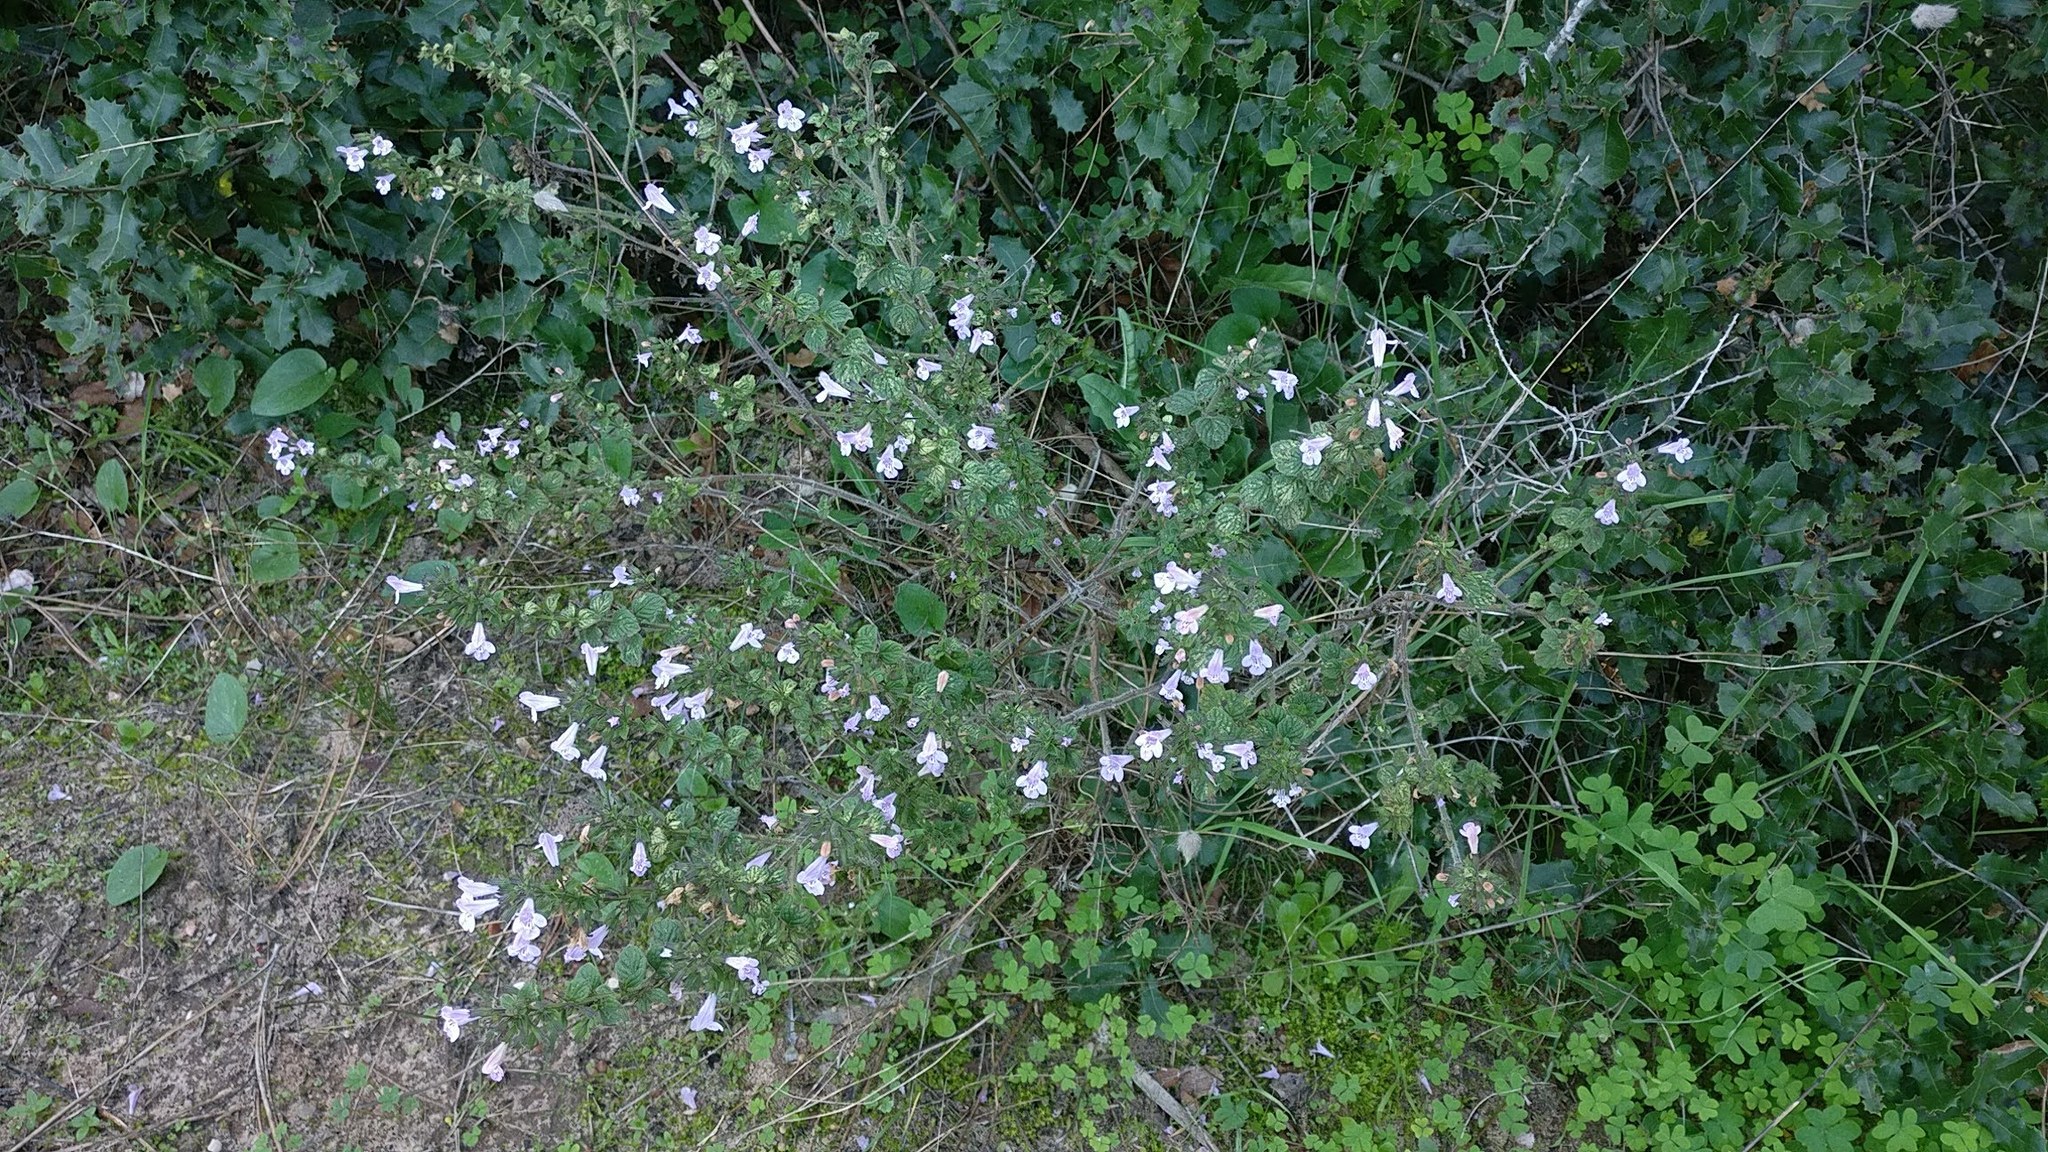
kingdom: Plantae
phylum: Tracheophyta
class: Magnoliopsida
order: Lamiales
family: Lamiaceae
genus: Clinopodium
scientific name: Clinopodium nepeta
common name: Lesser calamint
